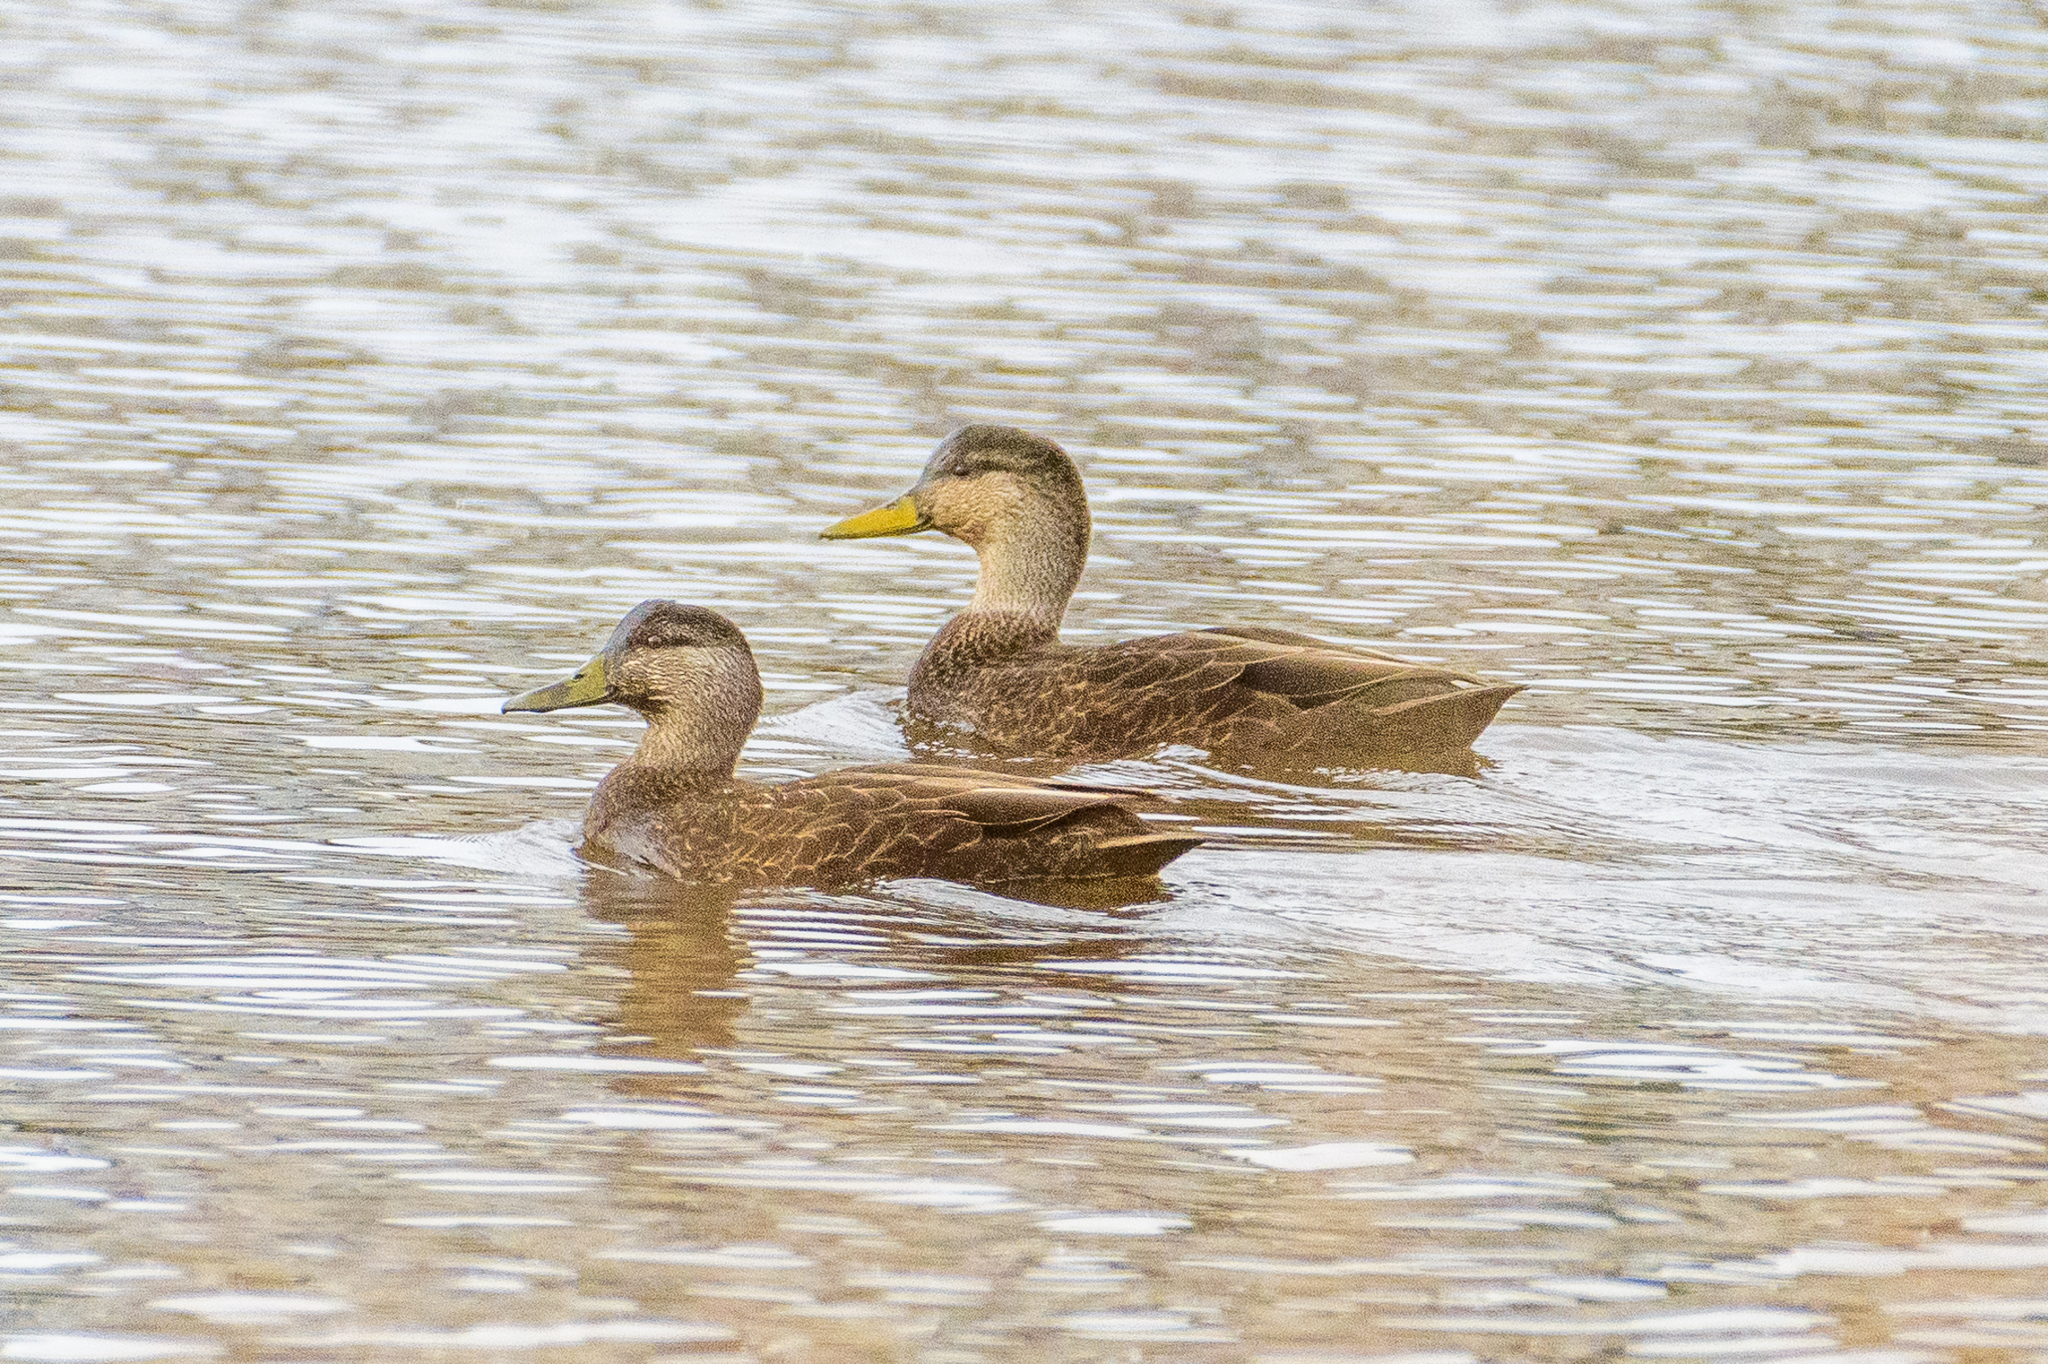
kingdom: Animalia
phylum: Chordata
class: Aves
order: Anseriformes
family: Anatidae
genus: Anas
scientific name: Anas rubripes
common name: American black duck
